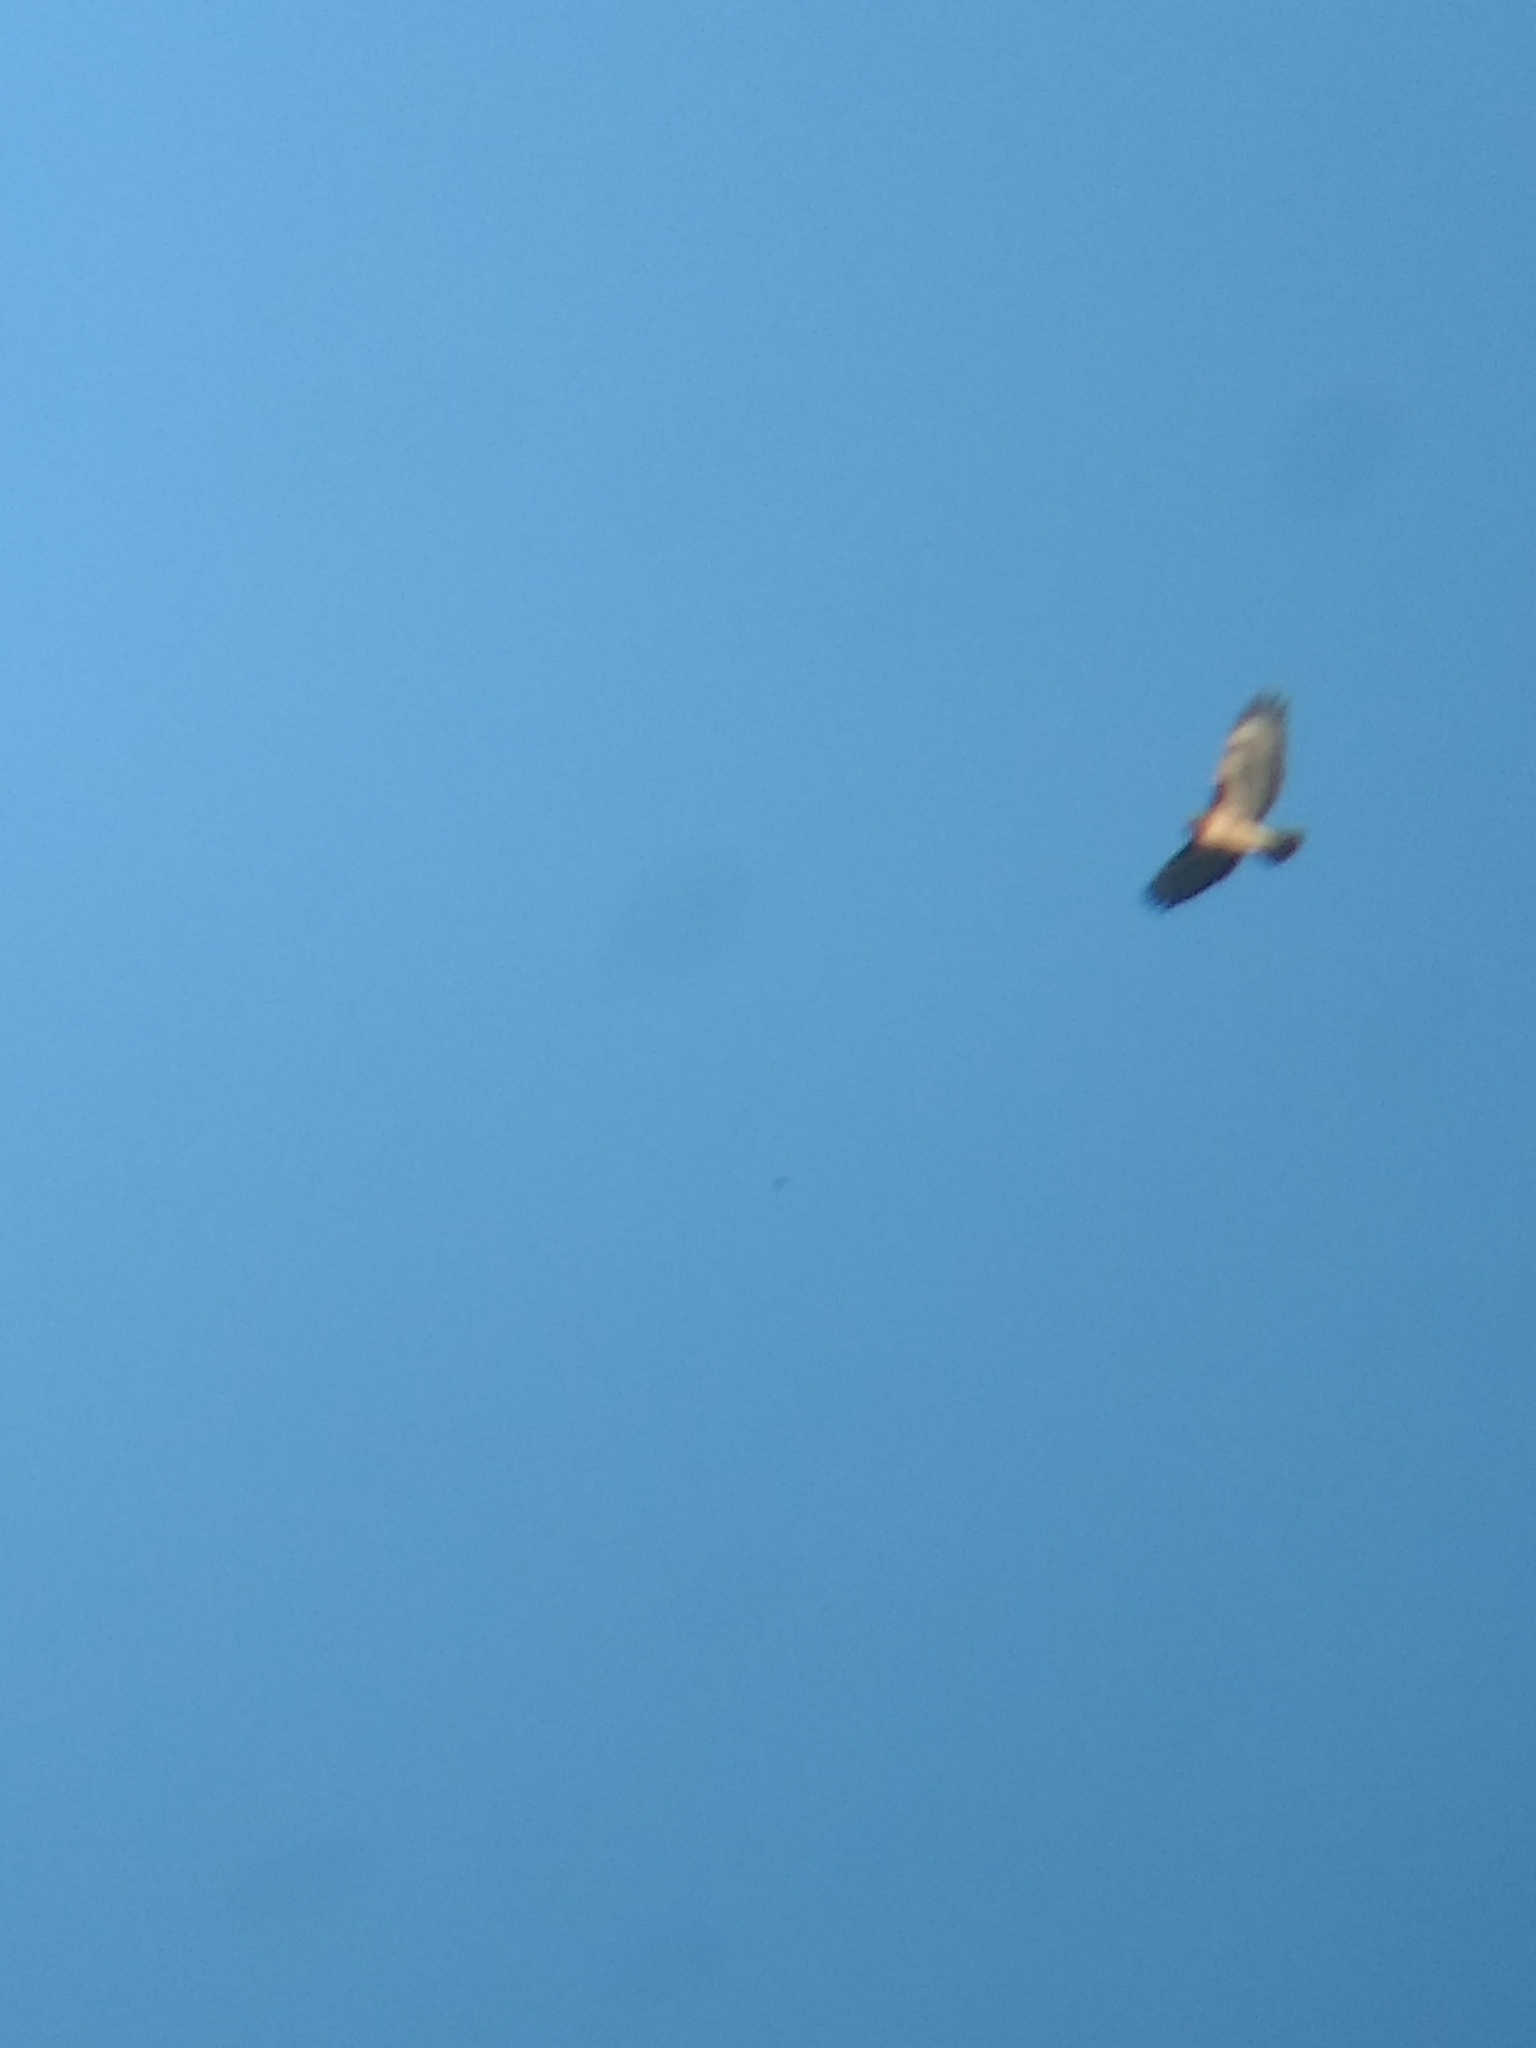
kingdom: Animalia
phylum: Chordata
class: Aves
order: Accipitriformes
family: Accipitridae
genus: Buteo
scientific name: Buteo jamaicensis
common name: Red-tailed hawk
